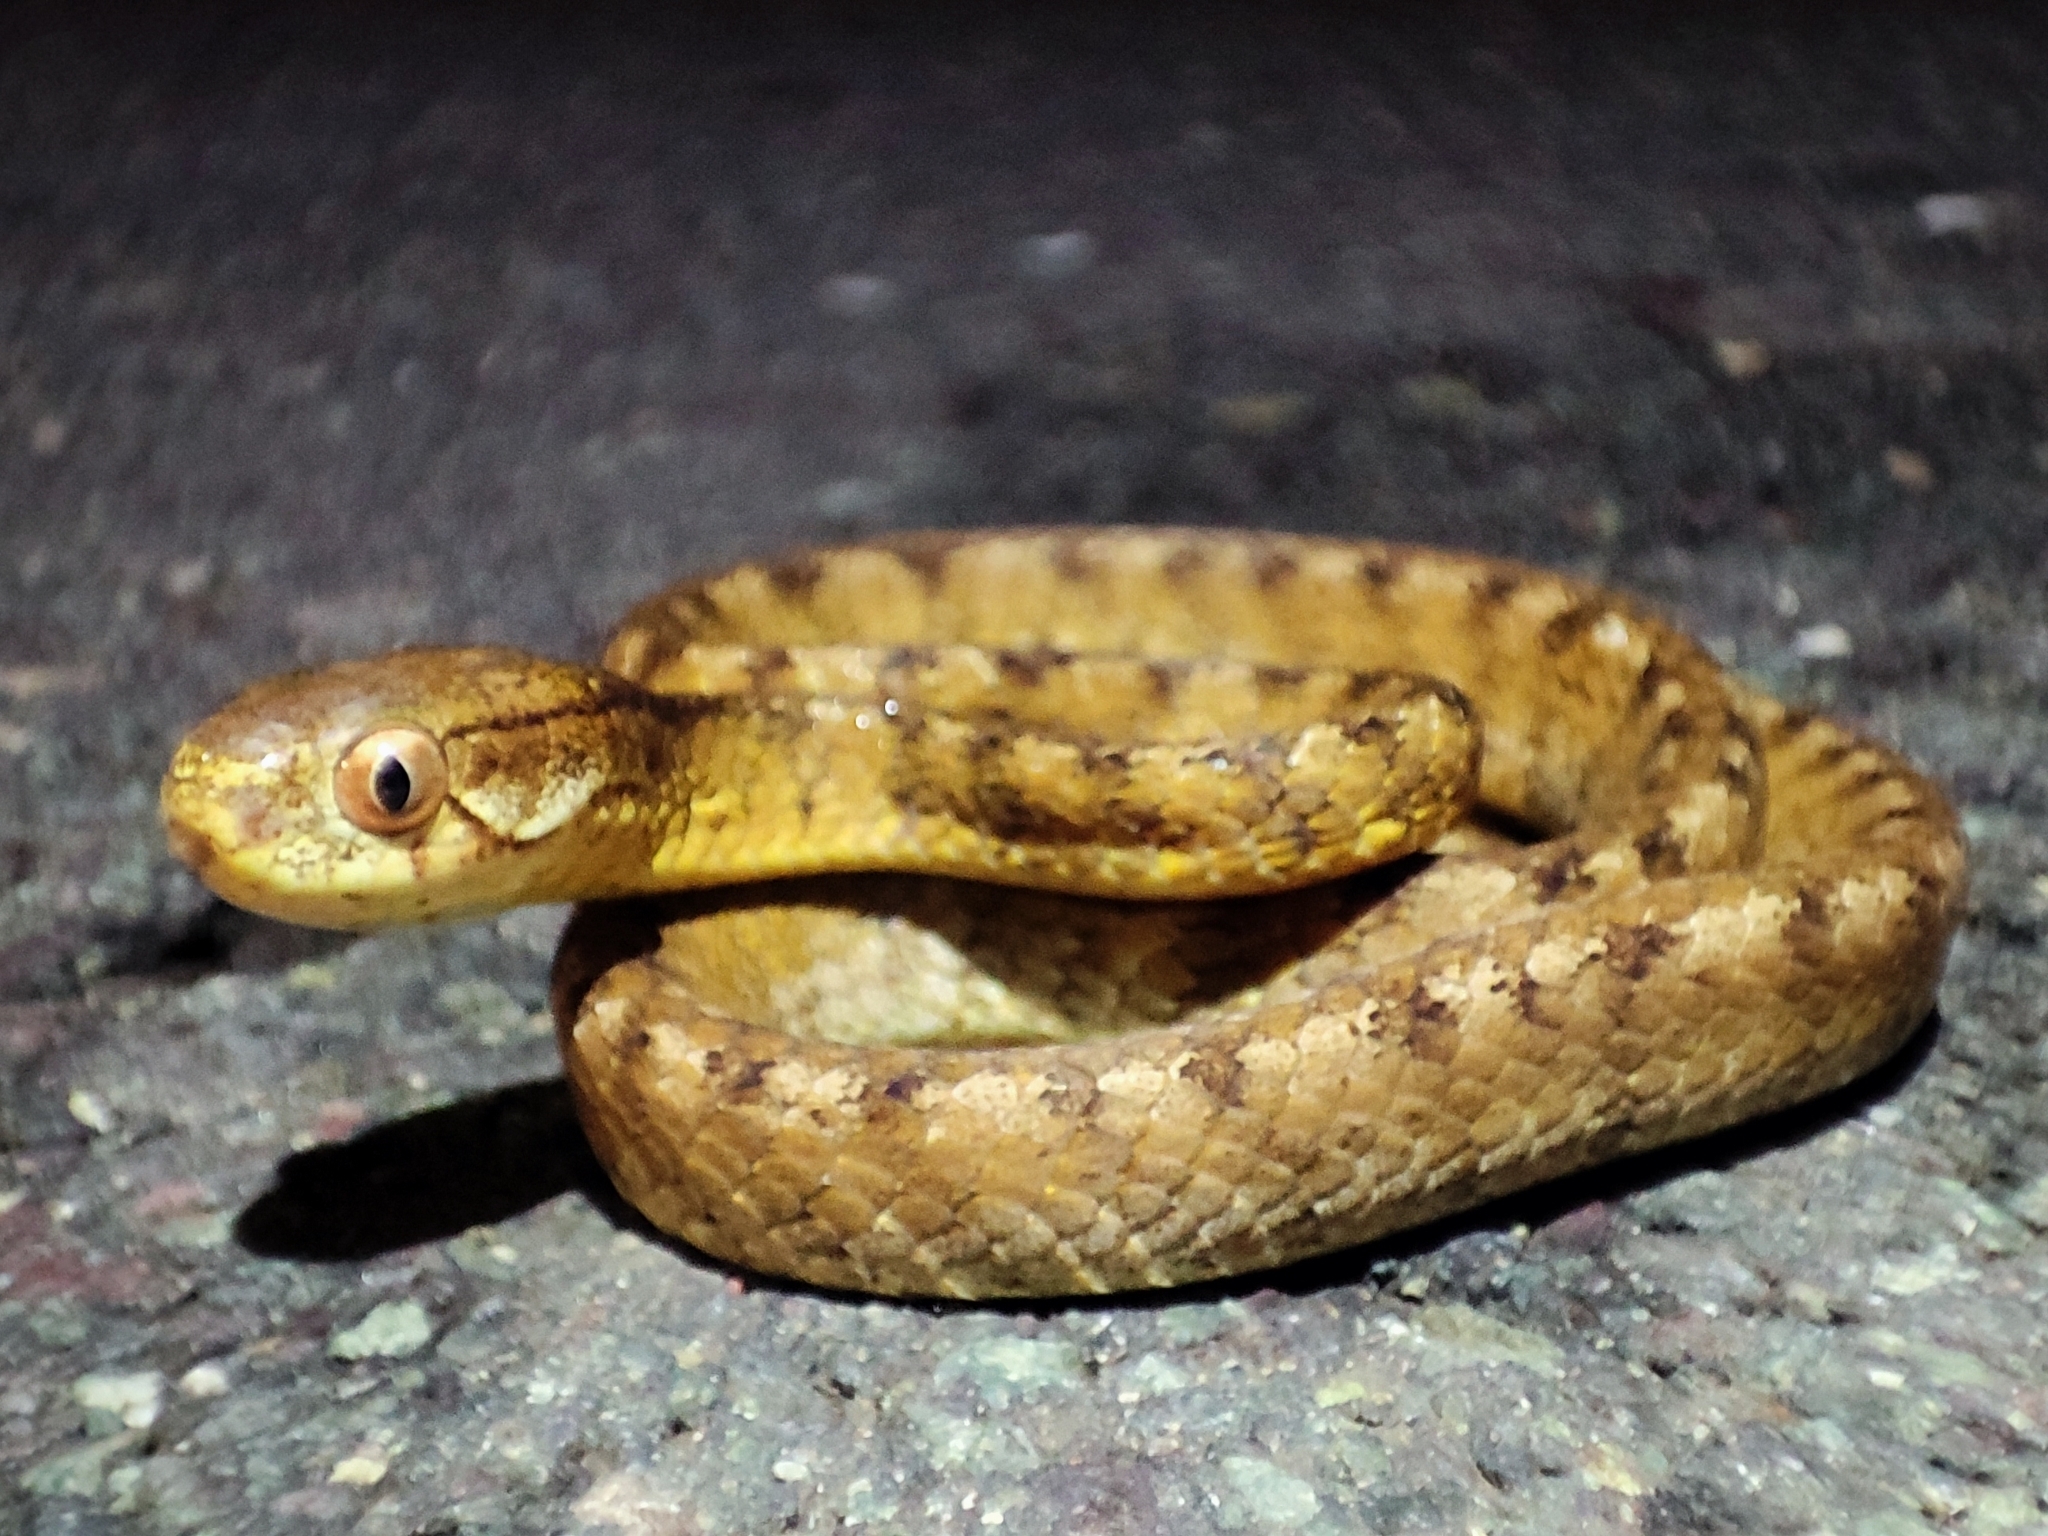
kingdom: Animalia
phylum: Chordata
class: Squamata
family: Pareidae
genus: Pareas
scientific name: Pareas carinatus
